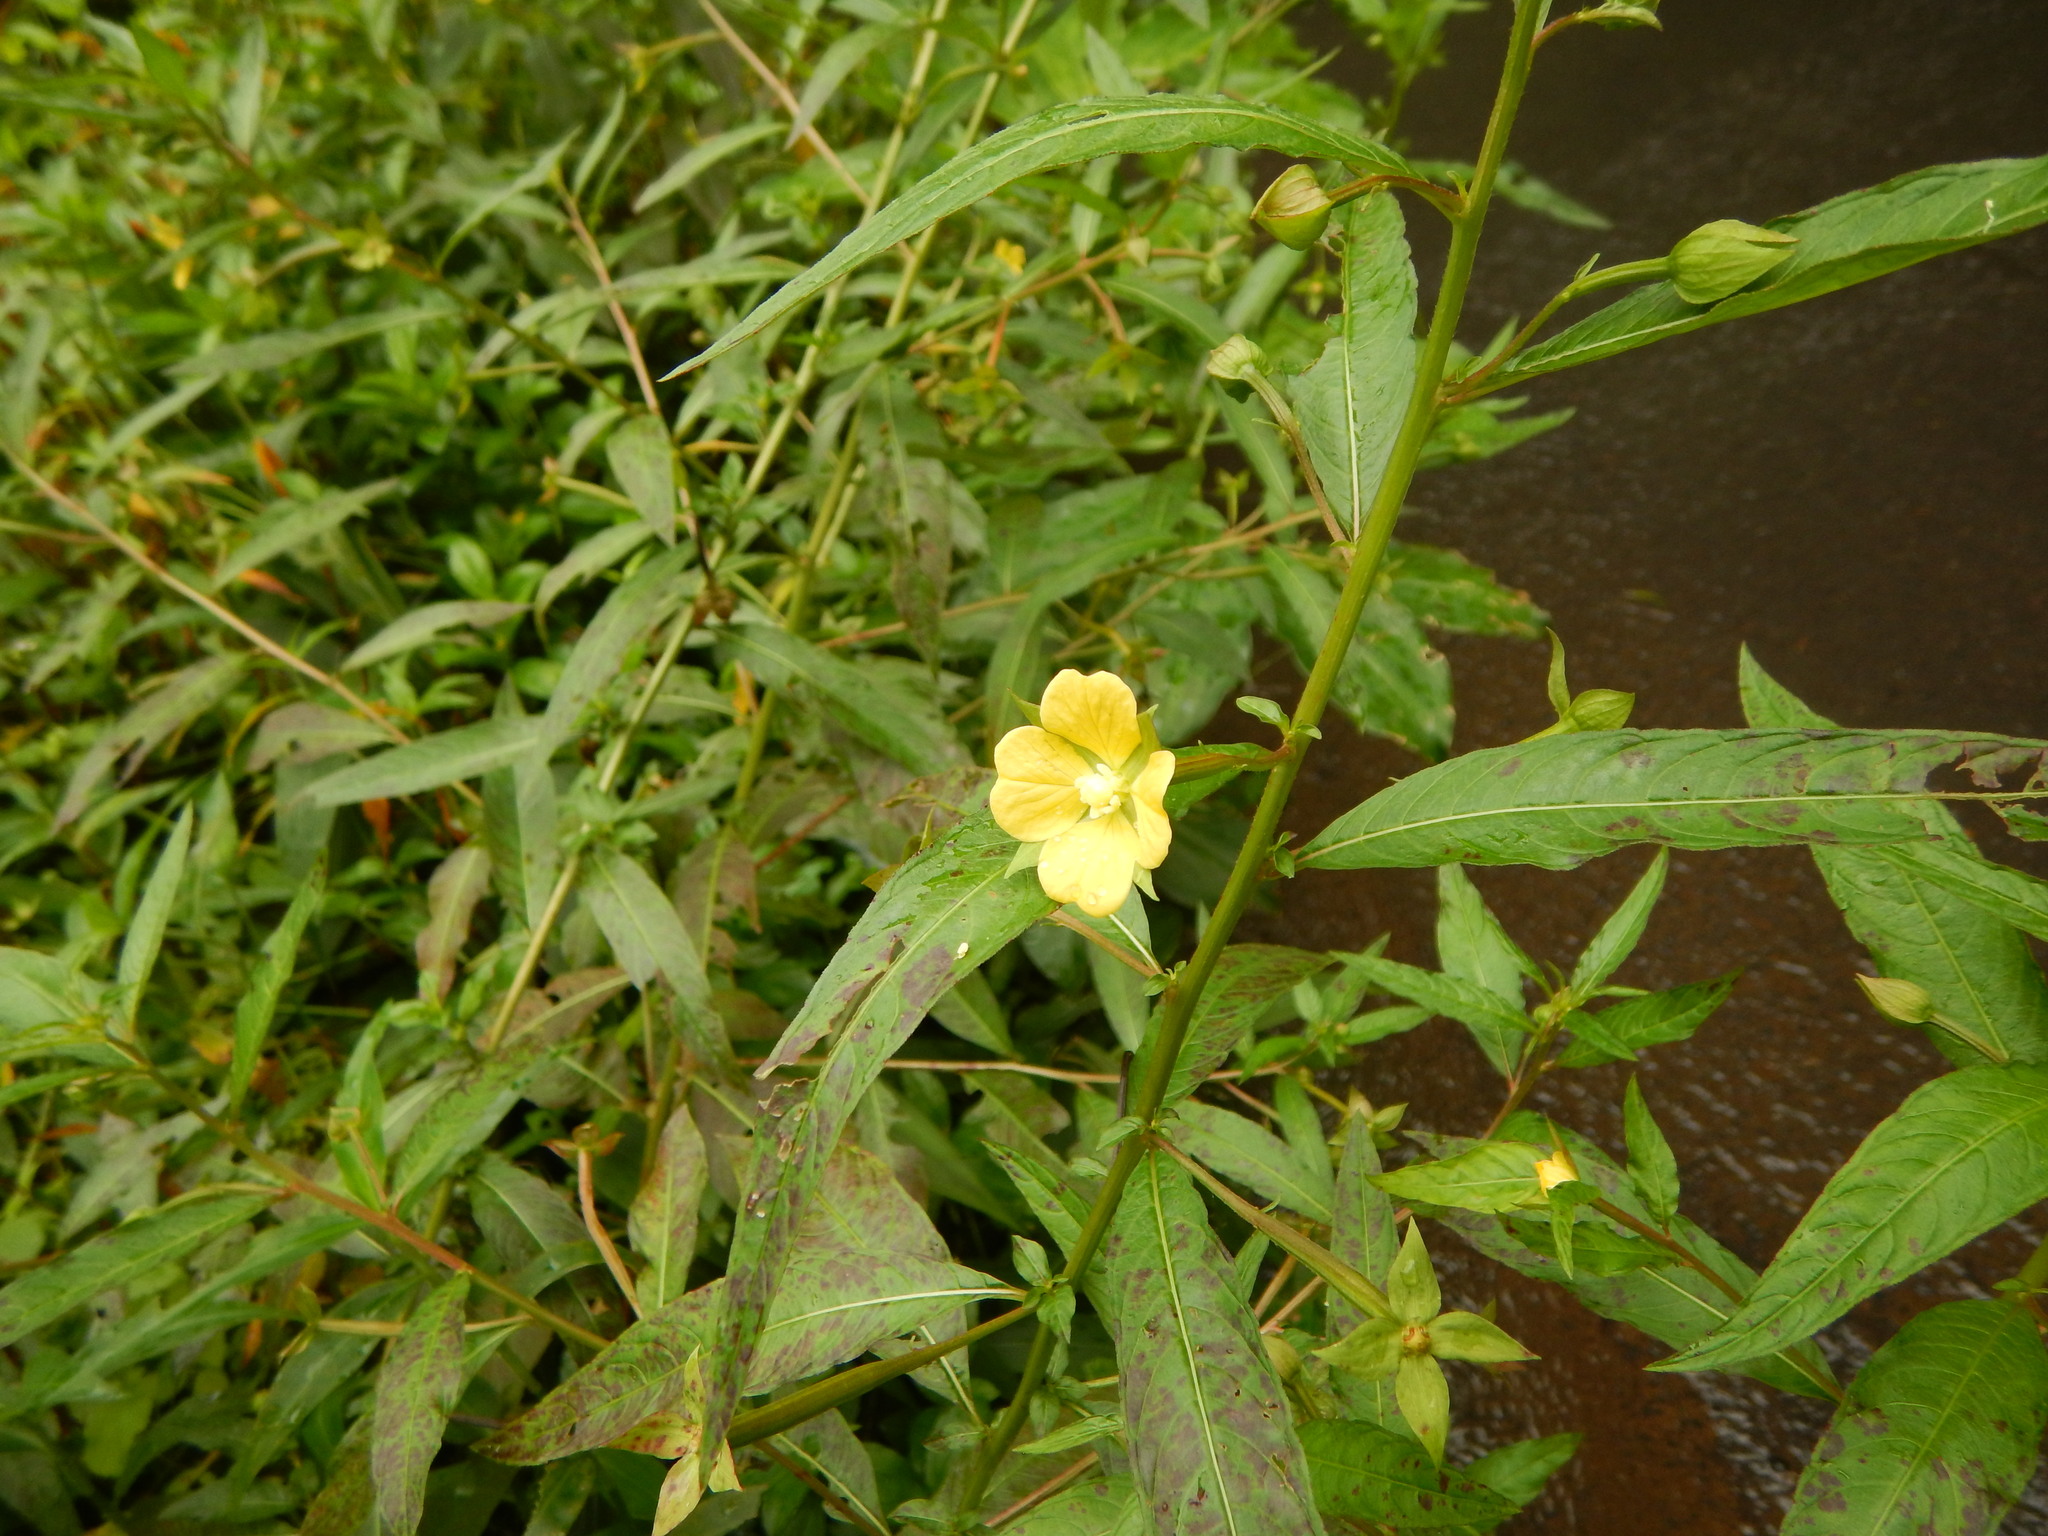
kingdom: Plantae
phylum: Tracheophyta
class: Magnoliopsida
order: Myrtales
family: Onagraceae
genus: Ludwigia
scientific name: Ludwigia octovalvis
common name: Water-primrose
